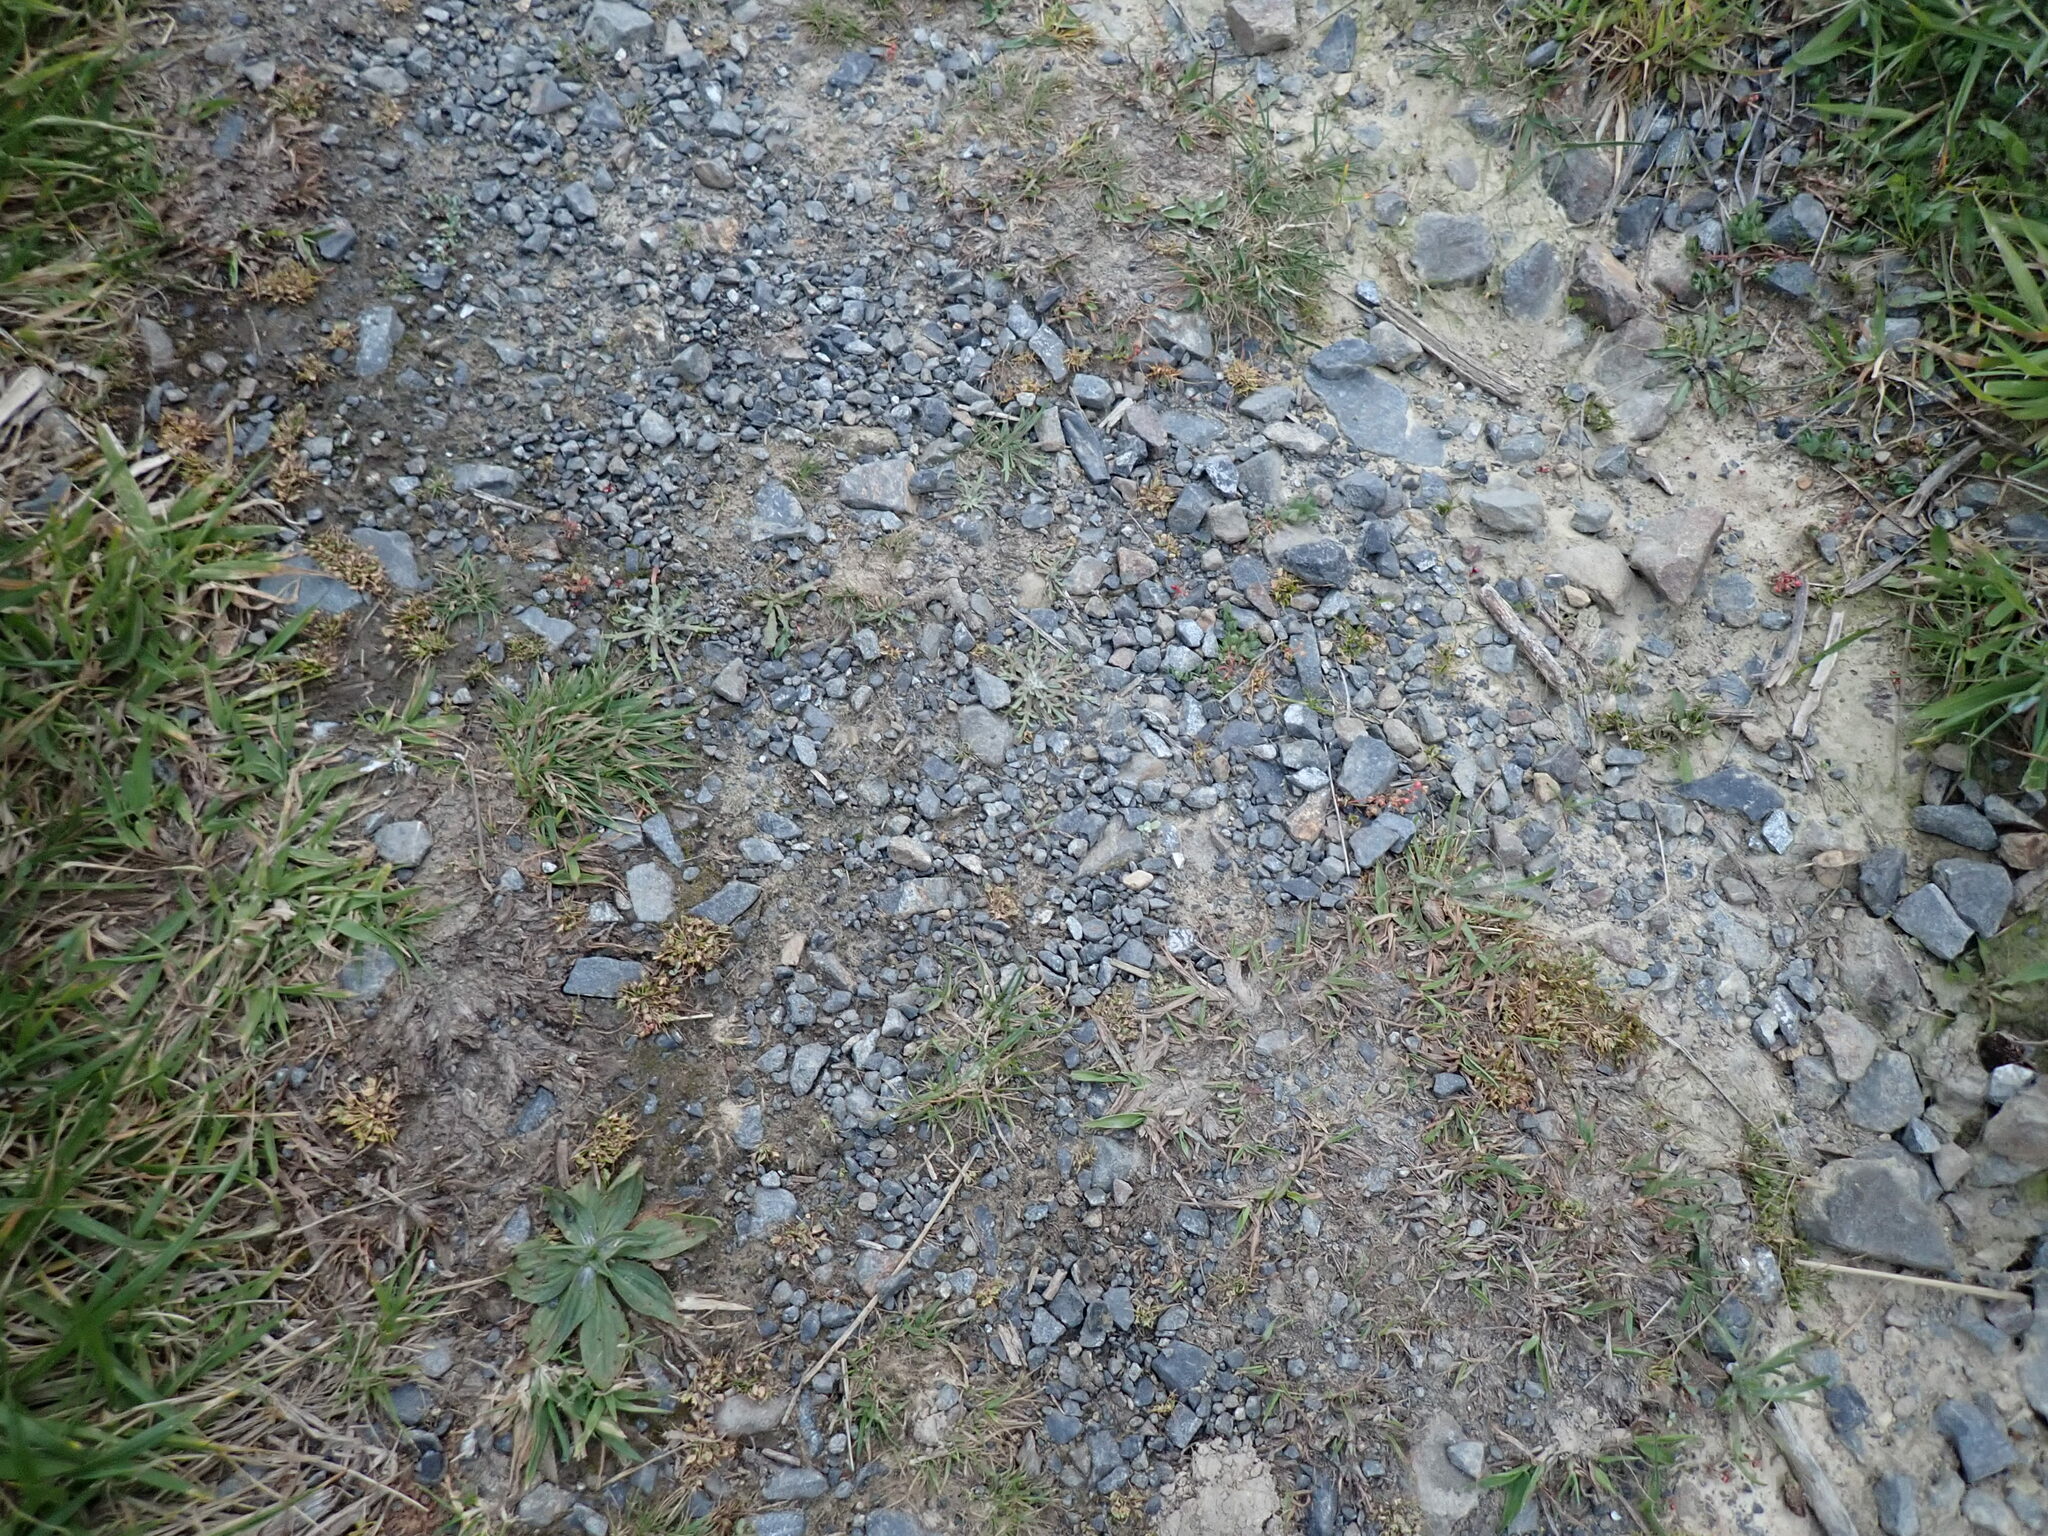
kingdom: Plantae
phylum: Tracheophyta
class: Liliopsida
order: Poales
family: Cyperaceae
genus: Isolepis
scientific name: Isolepis levynsiana
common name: Sedge
